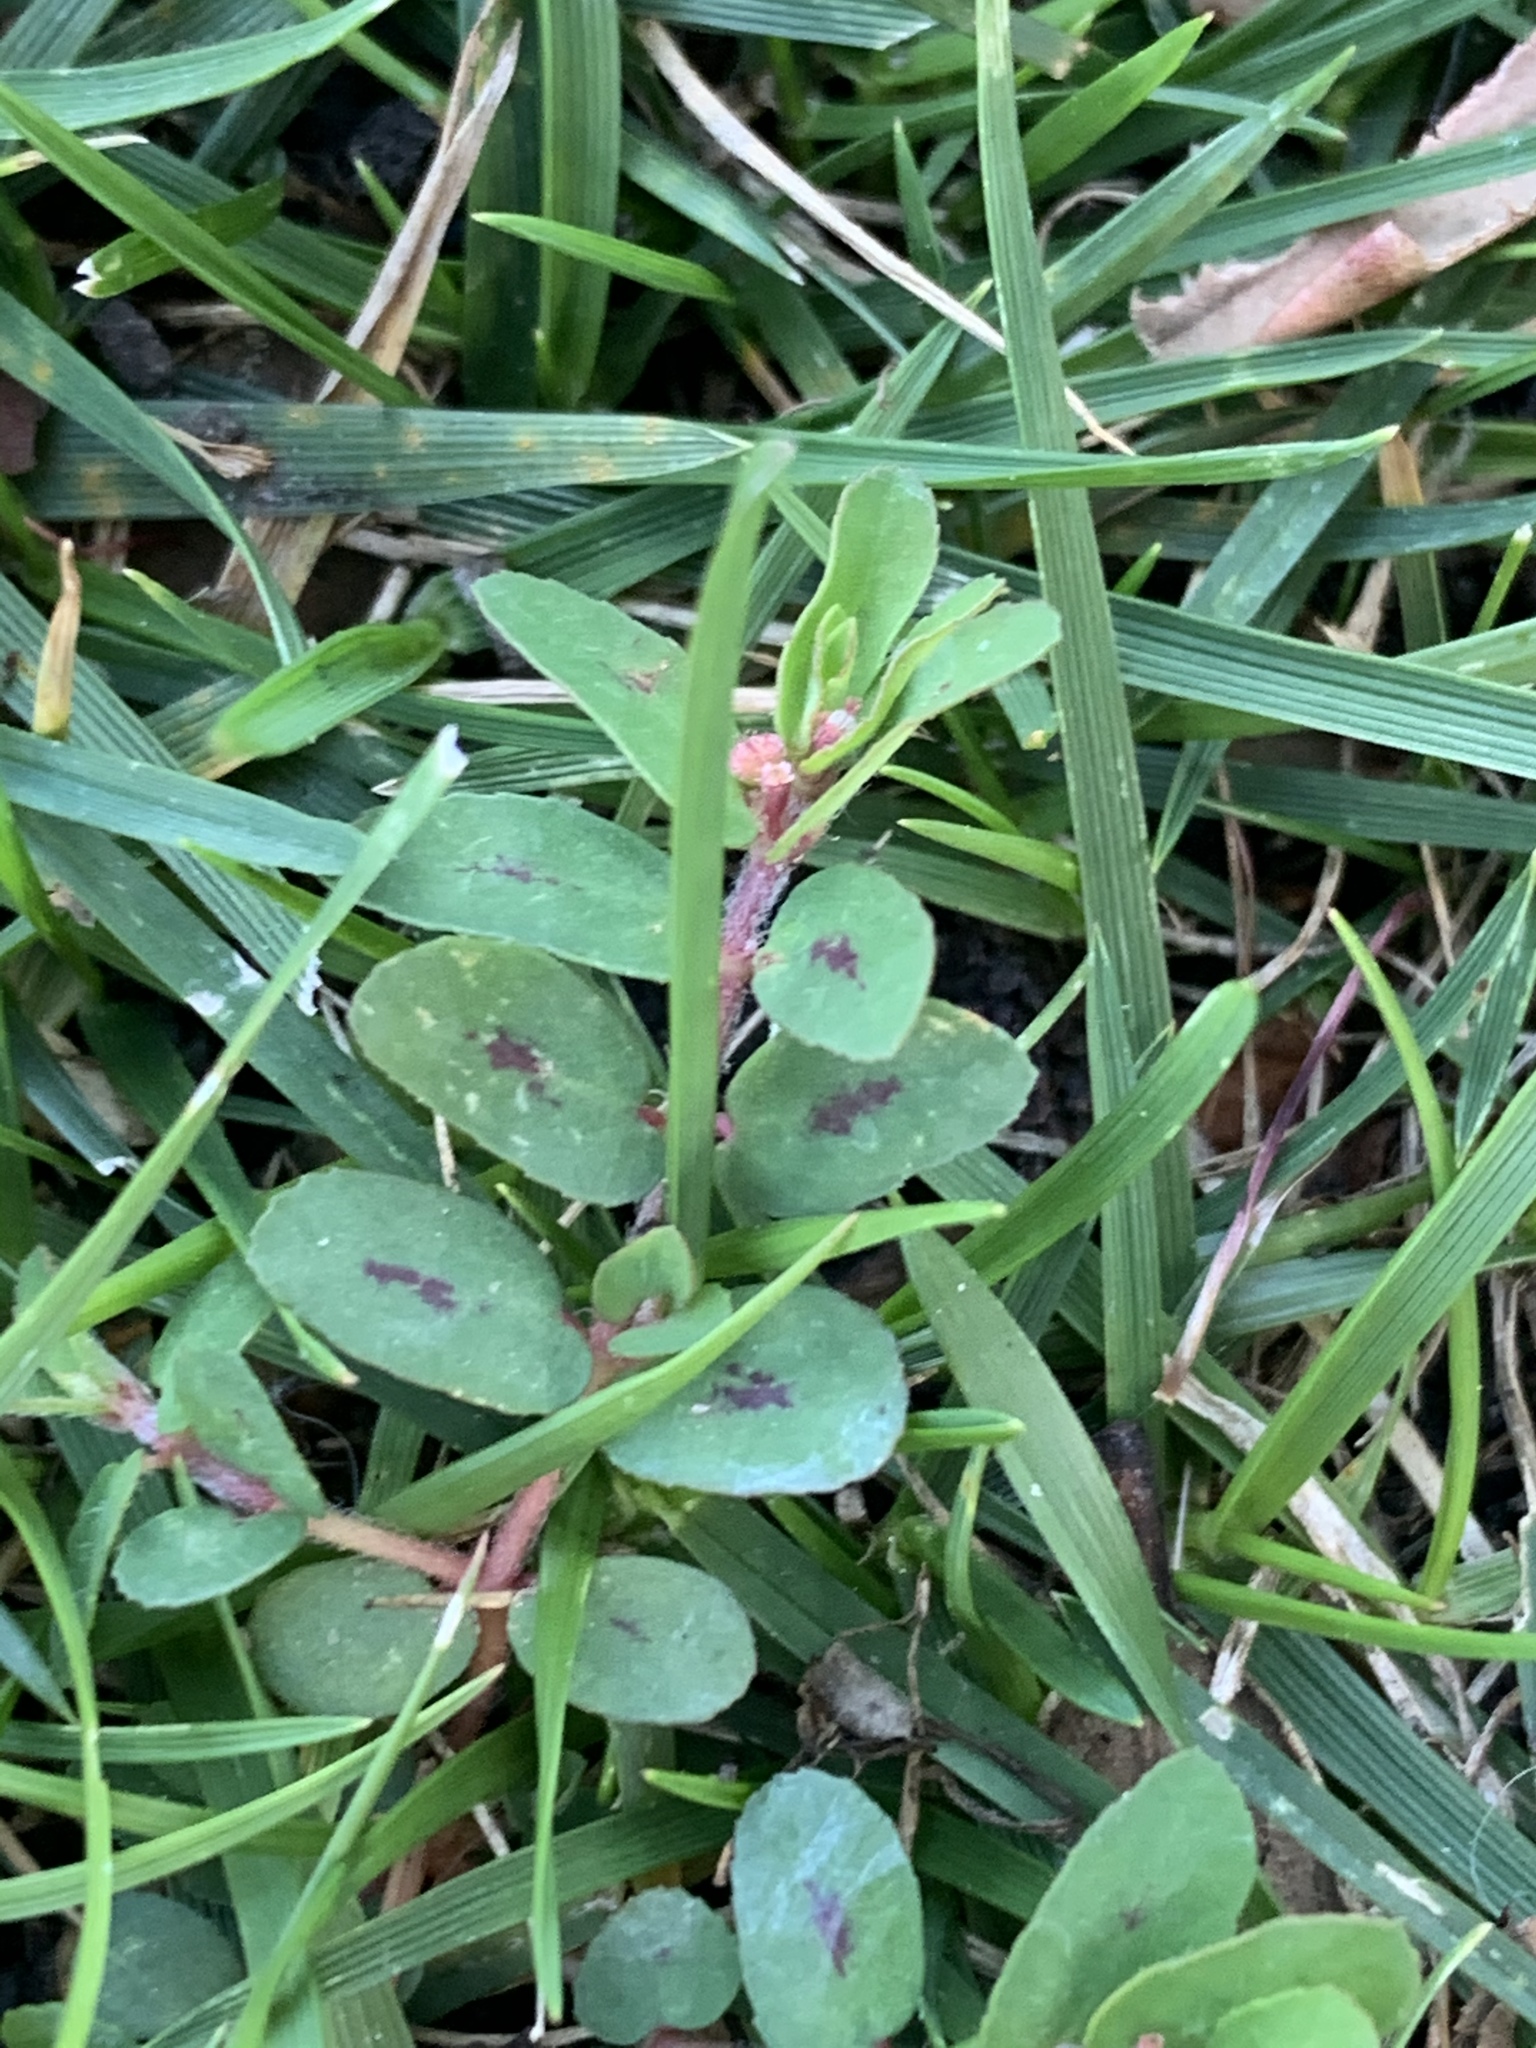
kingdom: Plantae
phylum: Tracheophyta
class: Magnoliopsida
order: Malpighiales
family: Euphorbiaceae
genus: Euphorbia
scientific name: Euphorbia maculata
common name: Spotted spurge
